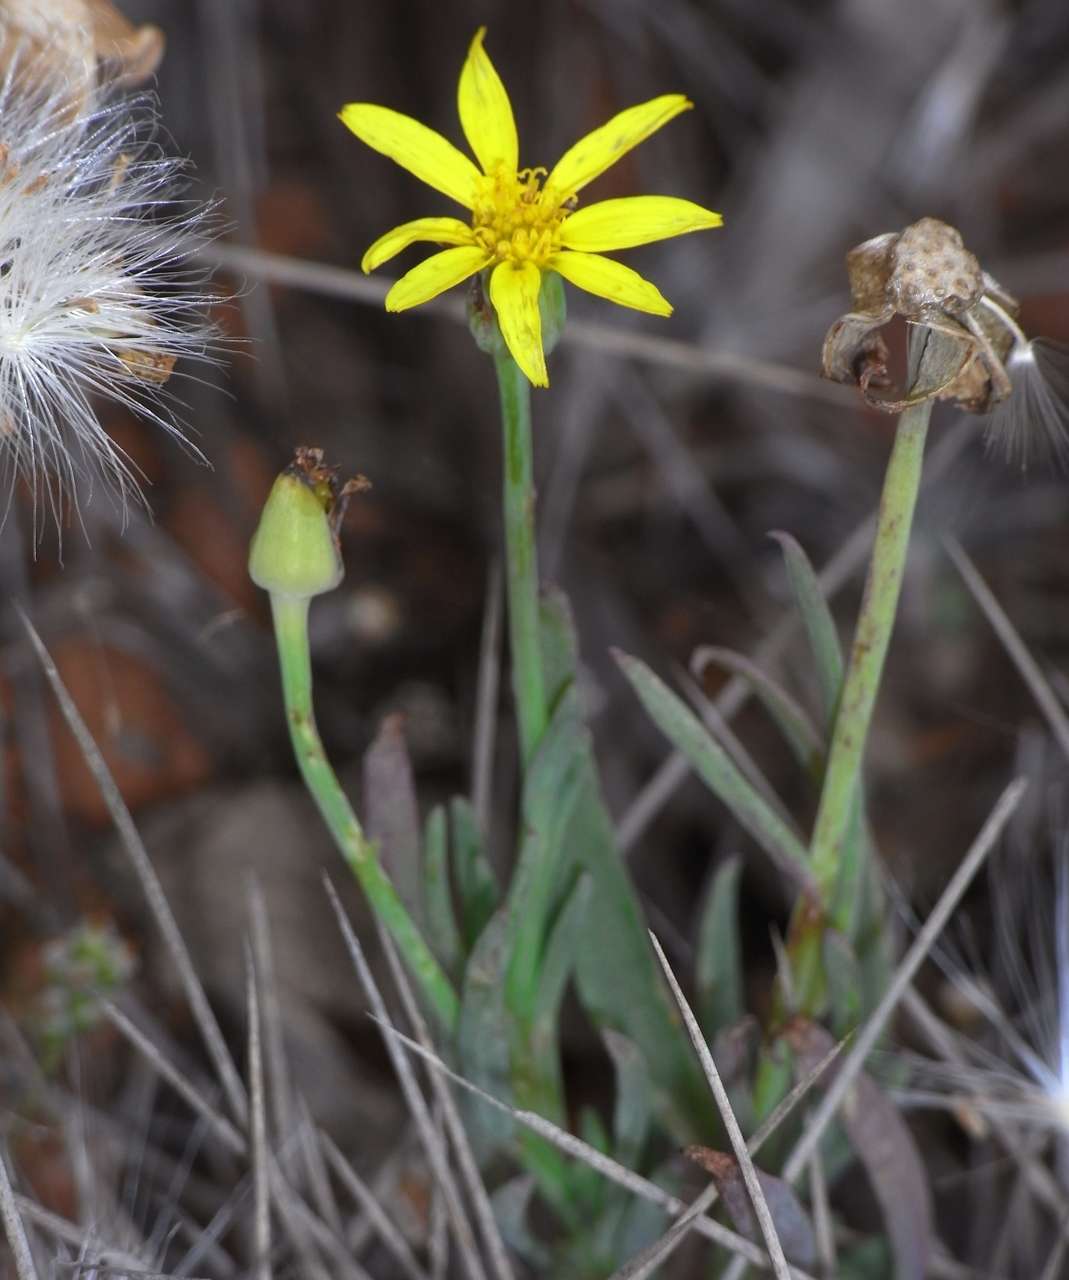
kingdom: Plantae
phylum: Tracheophyta
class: Magnoliopsida
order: Asterales
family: Asteraceae
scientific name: Asteraceae
